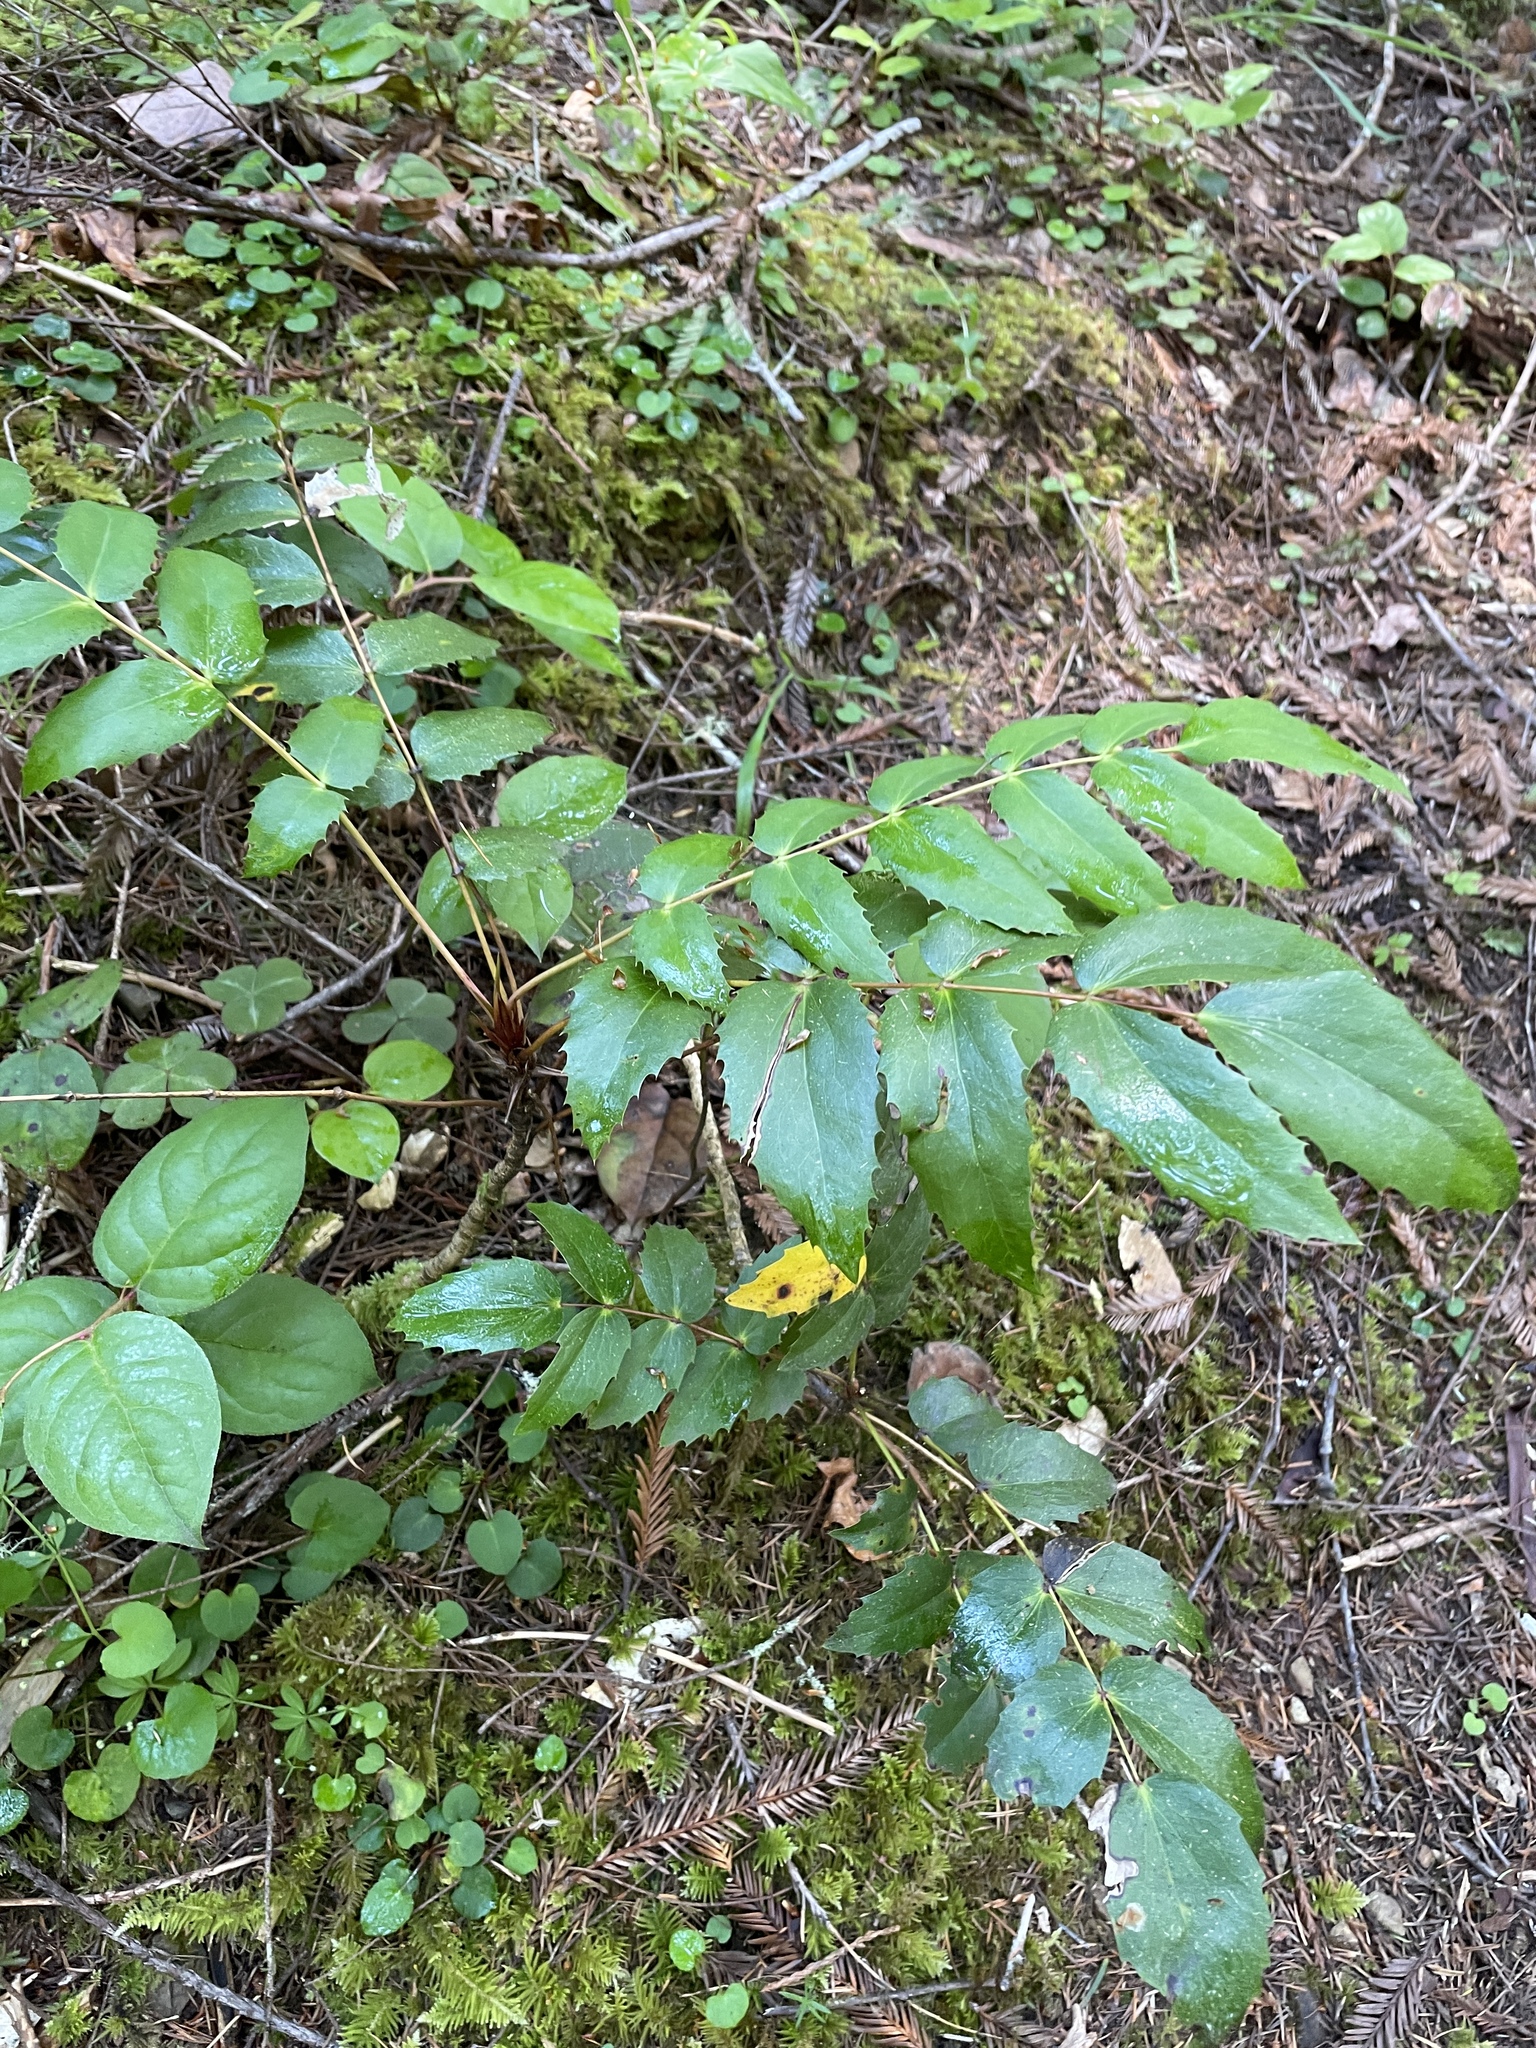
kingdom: Plantae
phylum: Tracheophyta
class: Magnoliopsida
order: Ranunculales
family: Berberidaceae
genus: Mahonia
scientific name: Mahonia nervosa
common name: Cascade oregon-grape
